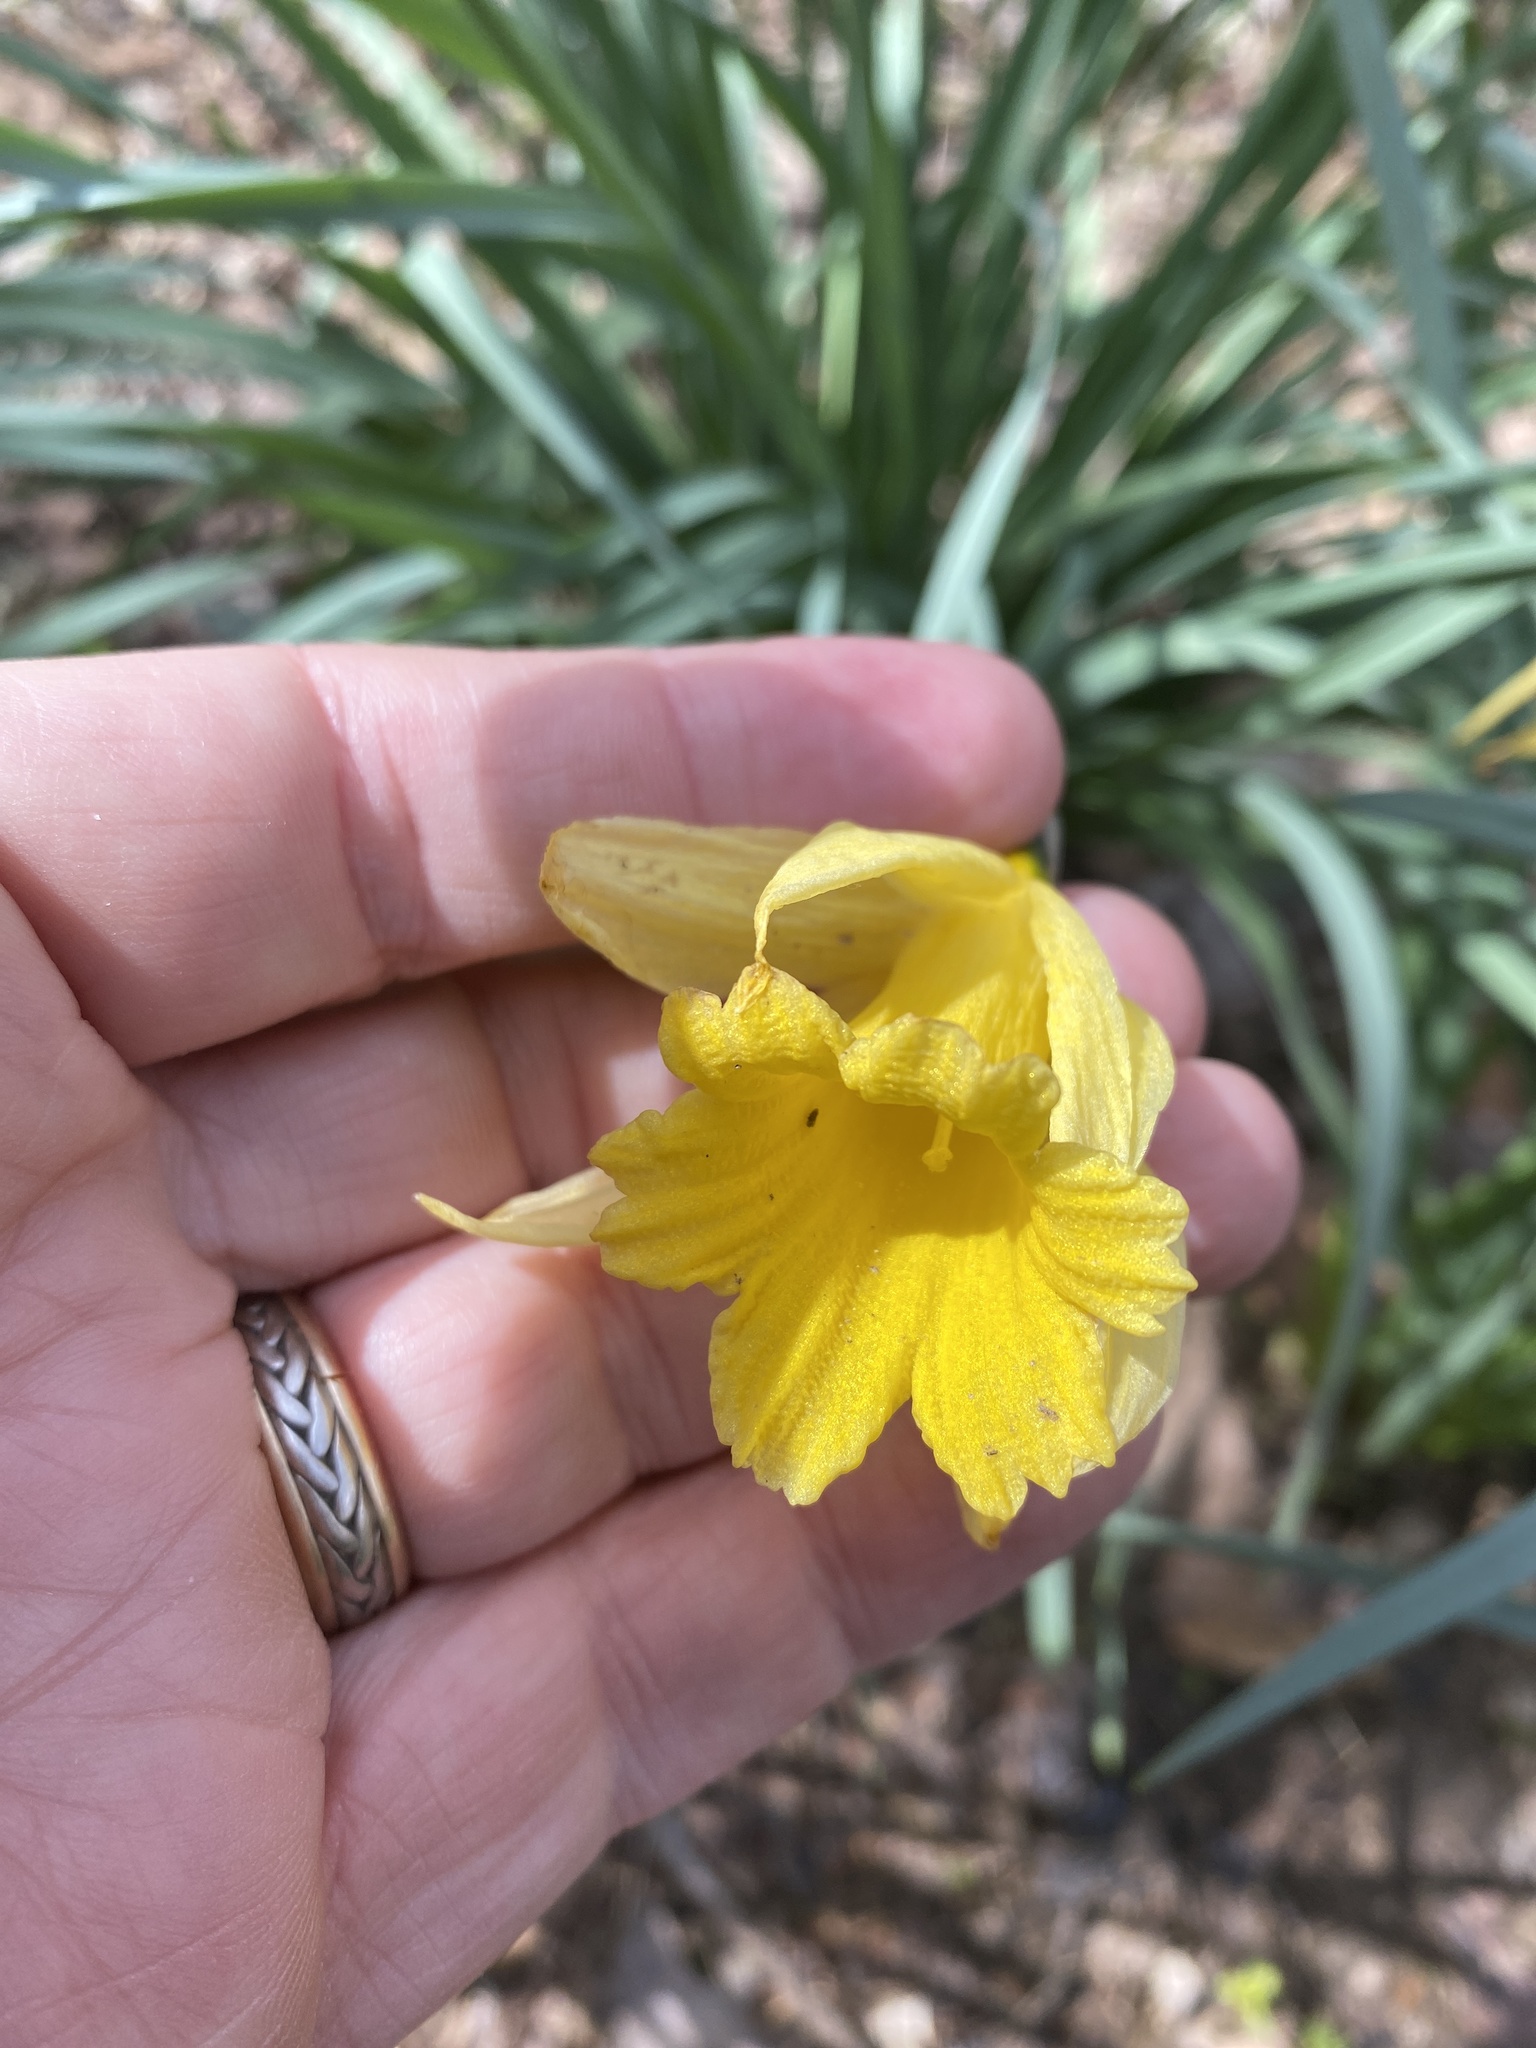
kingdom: Plantae
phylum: Tracheophyta
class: Liliopsida
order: Asparagales
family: Amaryllidaceae
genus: Narcissus
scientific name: Narcissus pseudonarcissus
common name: Daffodil
